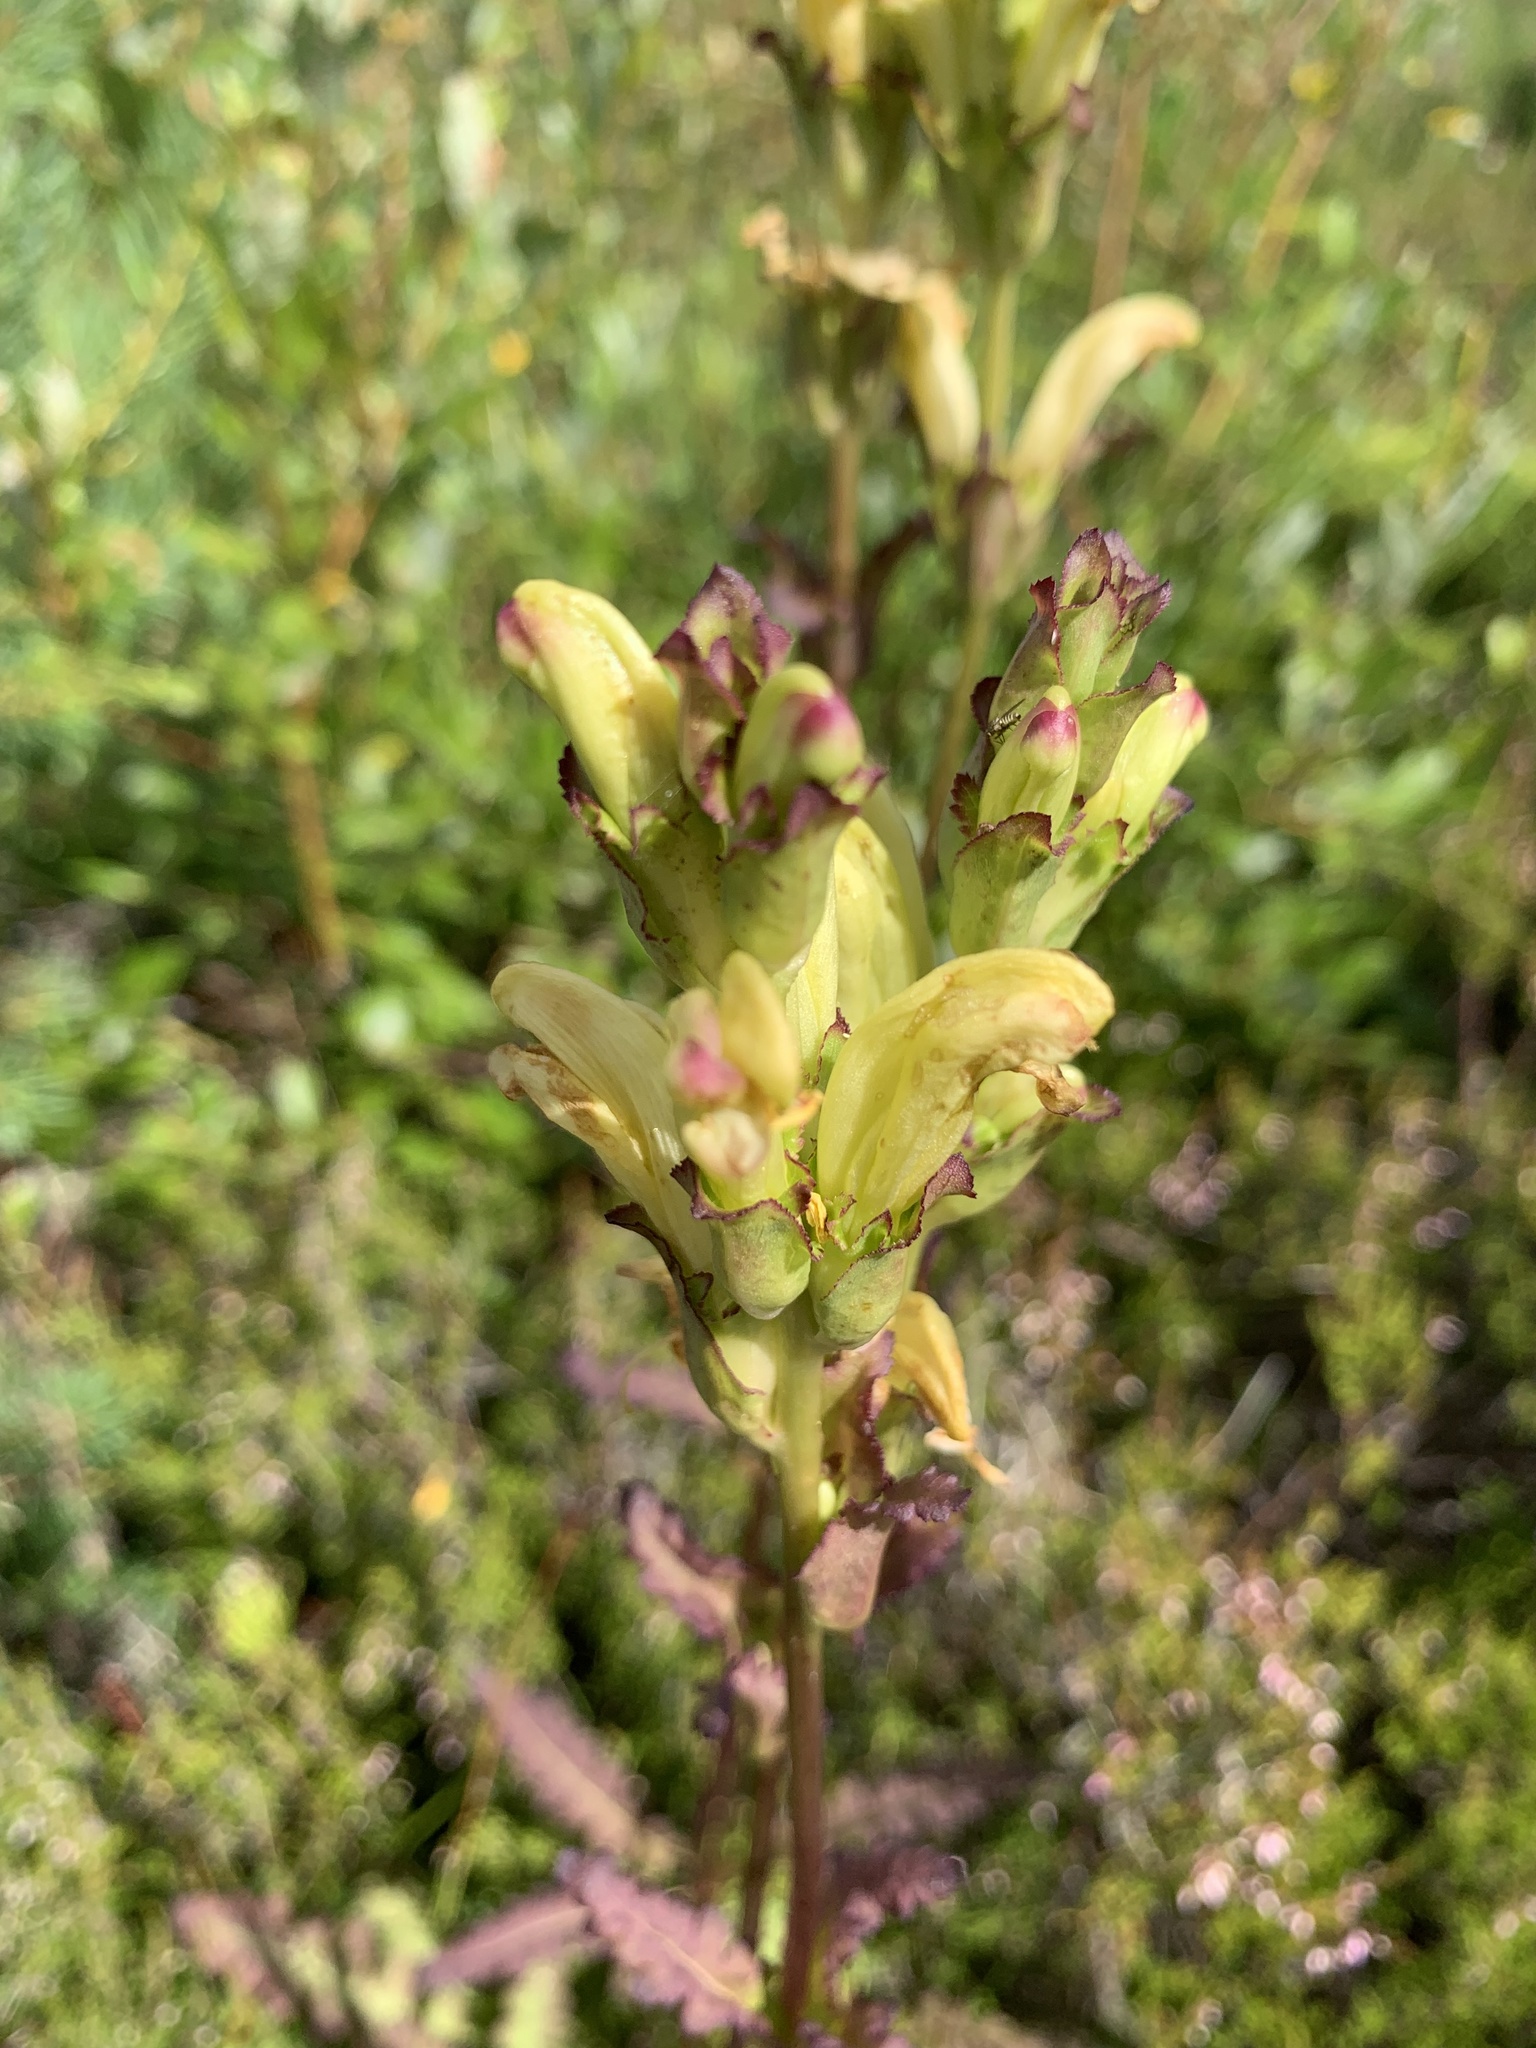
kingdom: Plantae
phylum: Tracheophyta
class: Magnoliopsida
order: Lamiales
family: Orobanchaceae
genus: Pedicularis
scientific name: Pedicularis sceptrum-carolinum
